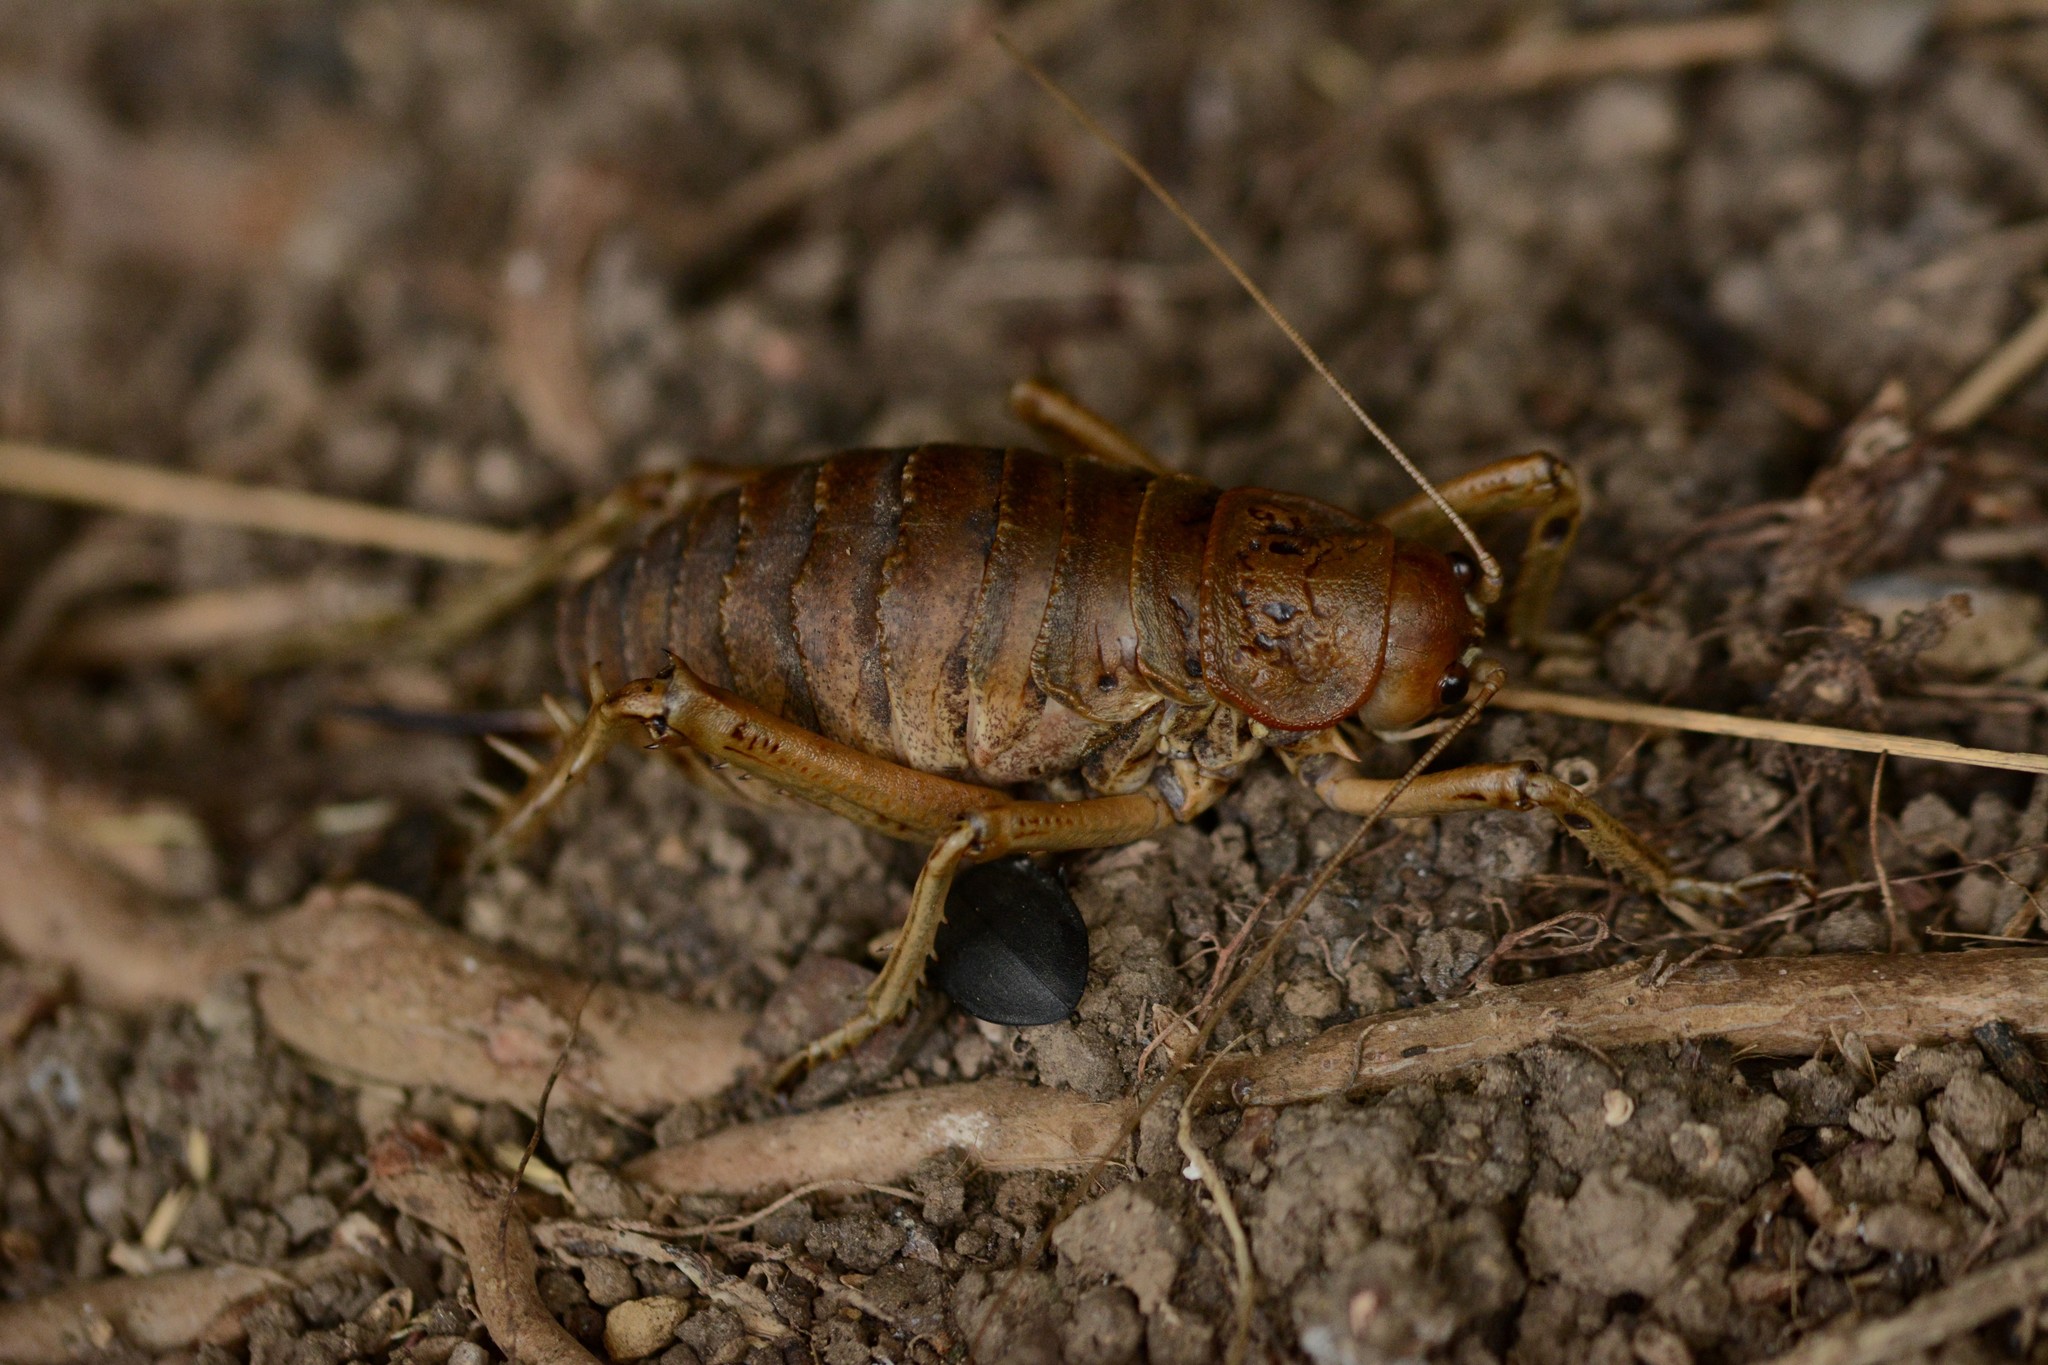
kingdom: Animalia
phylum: Arthropoda
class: Insecta
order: Orthoptera
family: Anostostomatidae
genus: Deinacrida
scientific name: Deinacrida rugosa
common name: Stephens island weta
